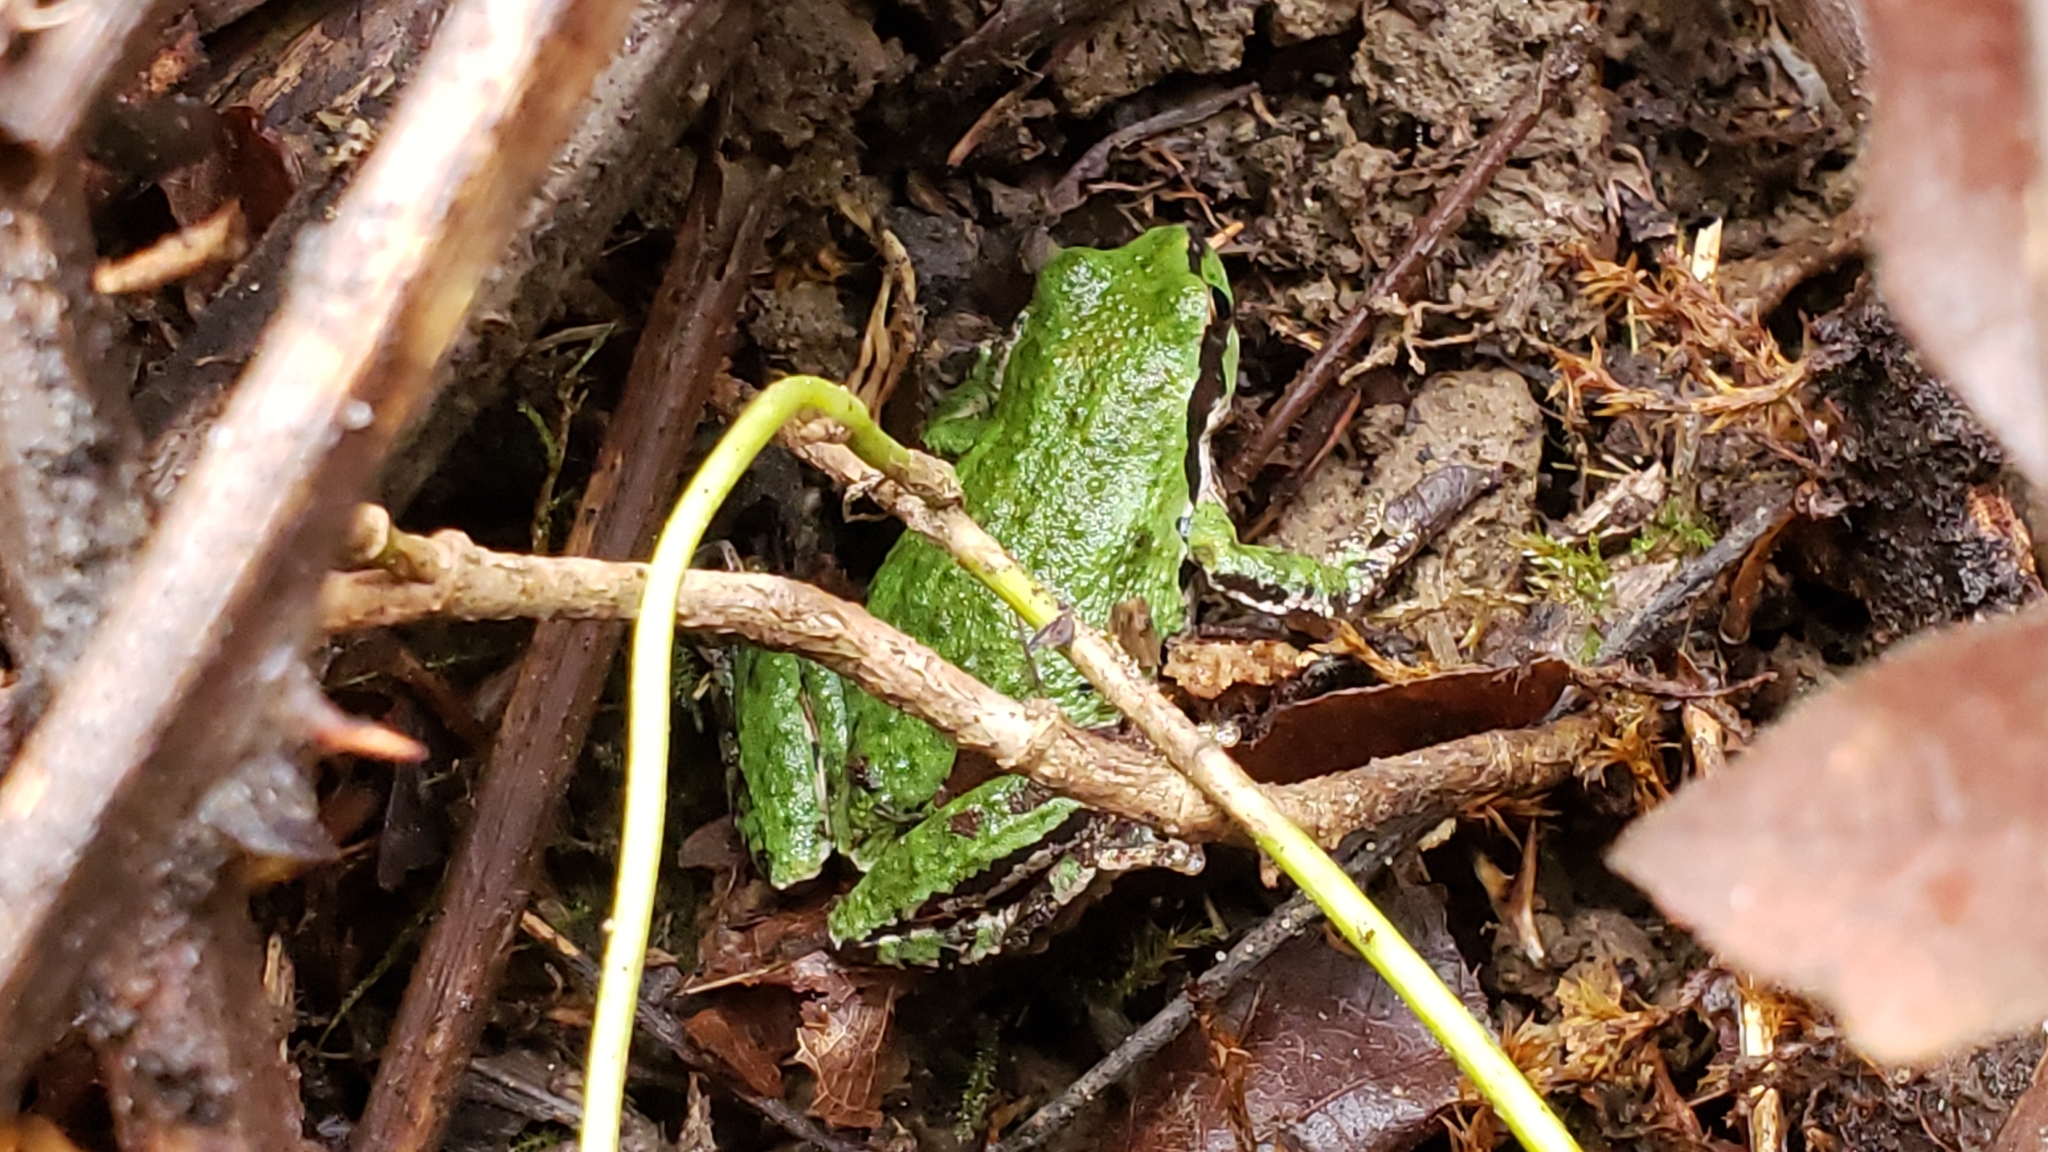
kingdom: Animalia
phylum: Chordata
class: Amphibia
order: Anura
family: Hylidae
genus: Pseudacris
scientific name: Pseudacris regilla
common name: Pacific chorus frog
